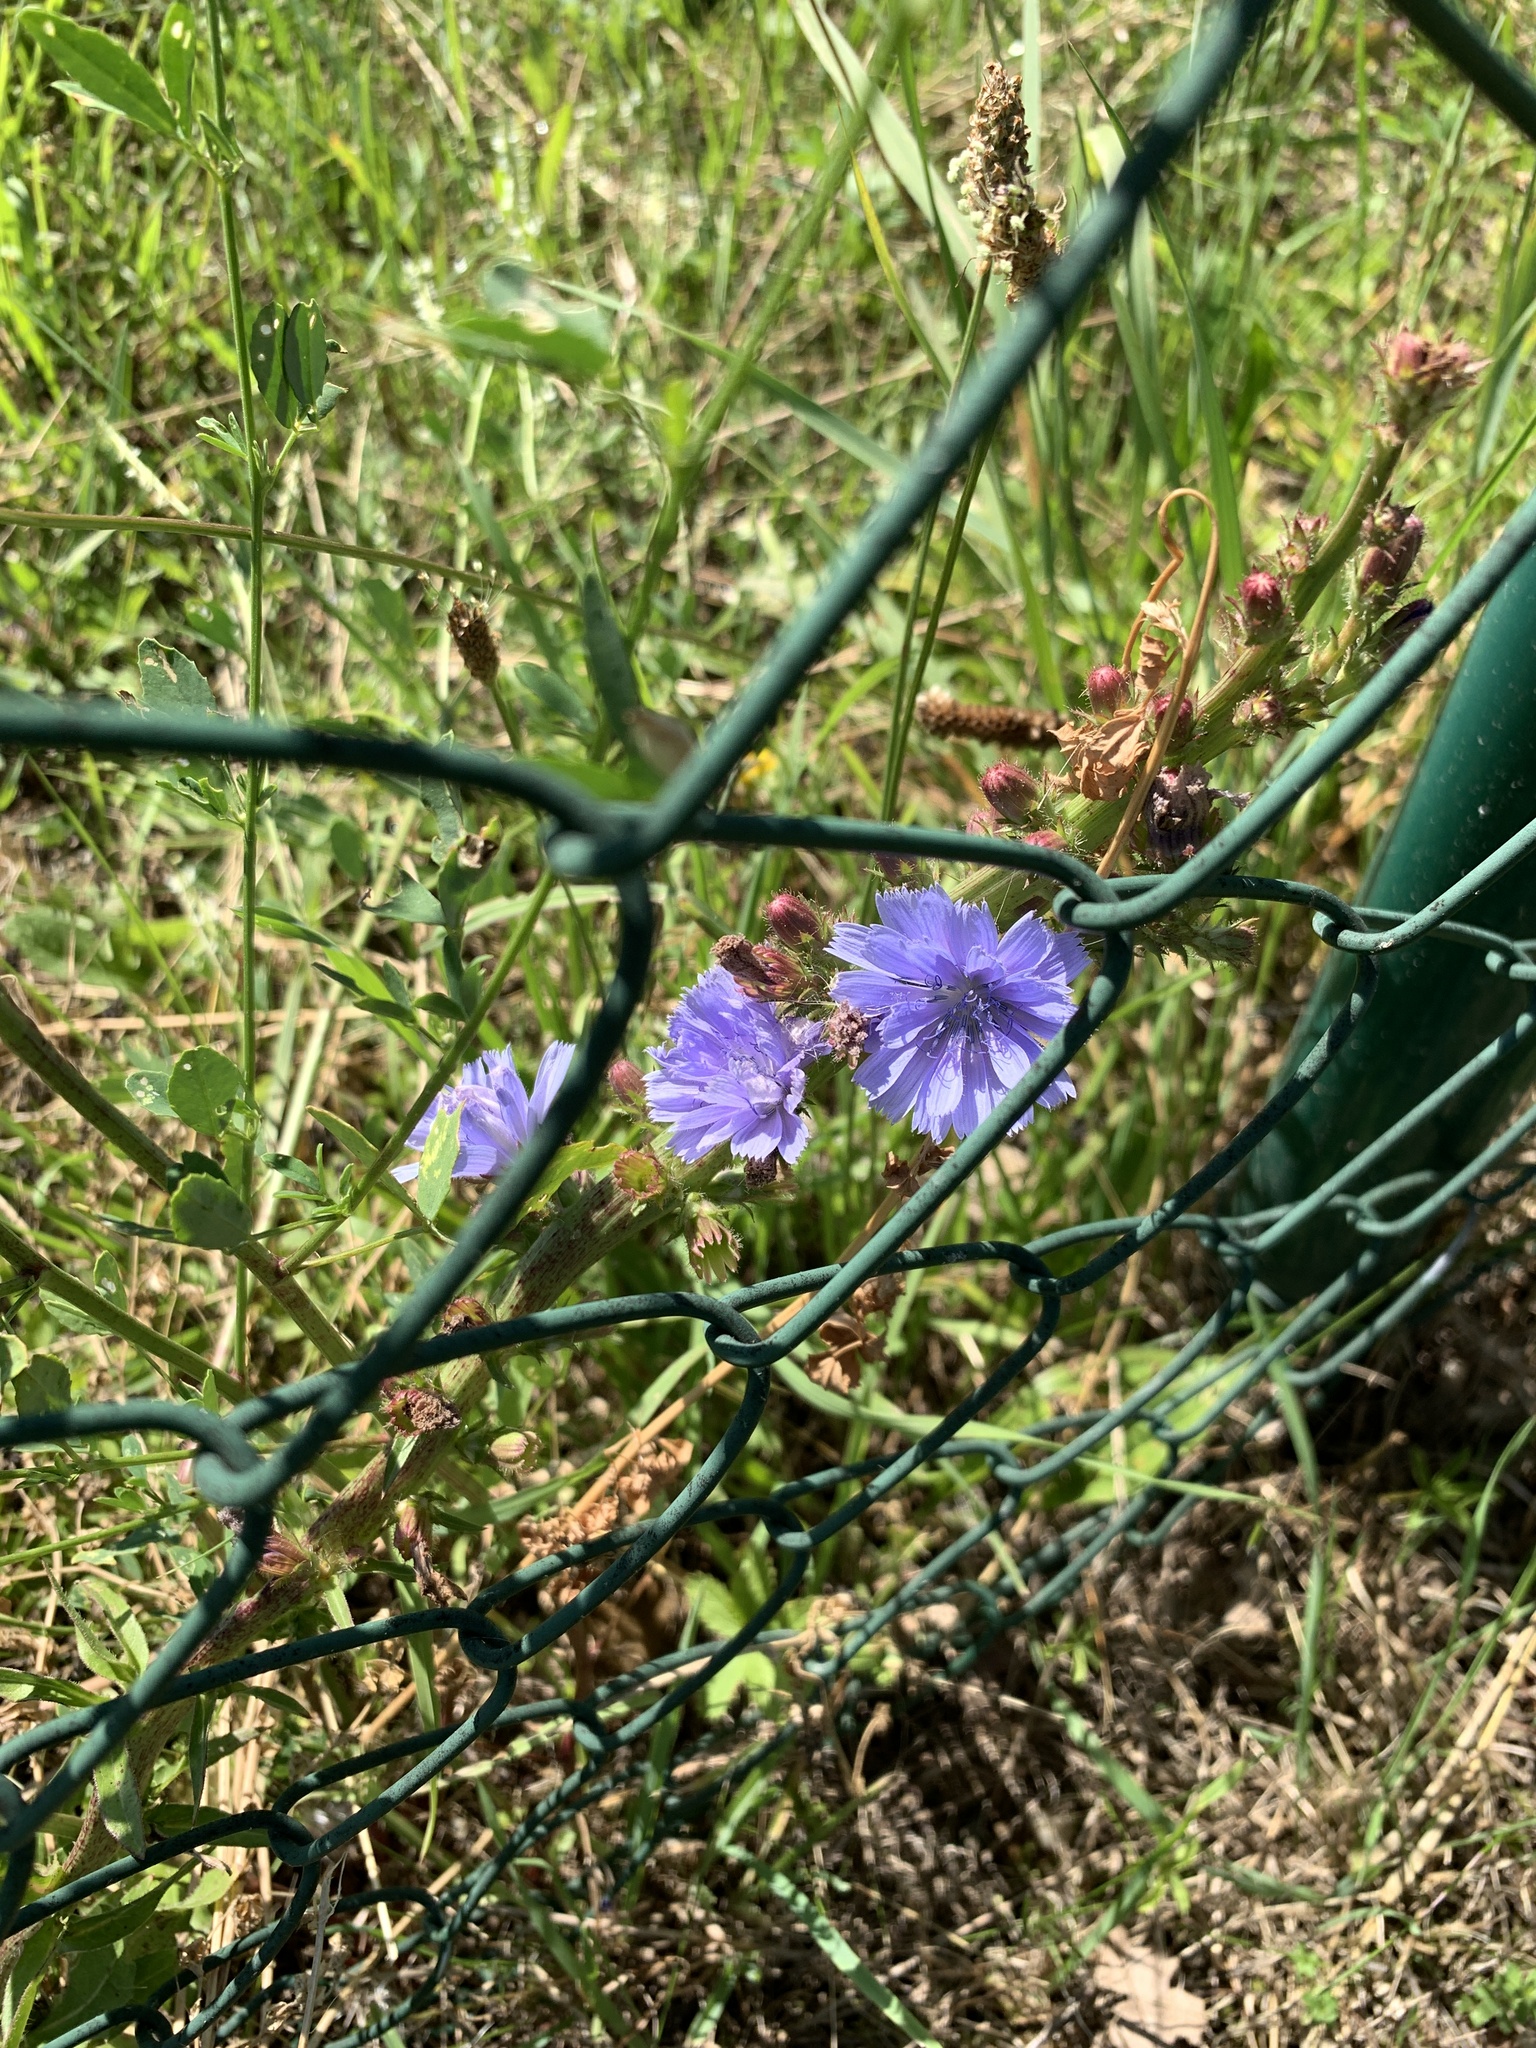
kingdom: Plantae
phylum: Tracheophyta
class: Magnoliopsida
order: Asterales
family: Asteraceae
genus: Cichorium
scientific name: Cichorium intybus
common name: Chicory
